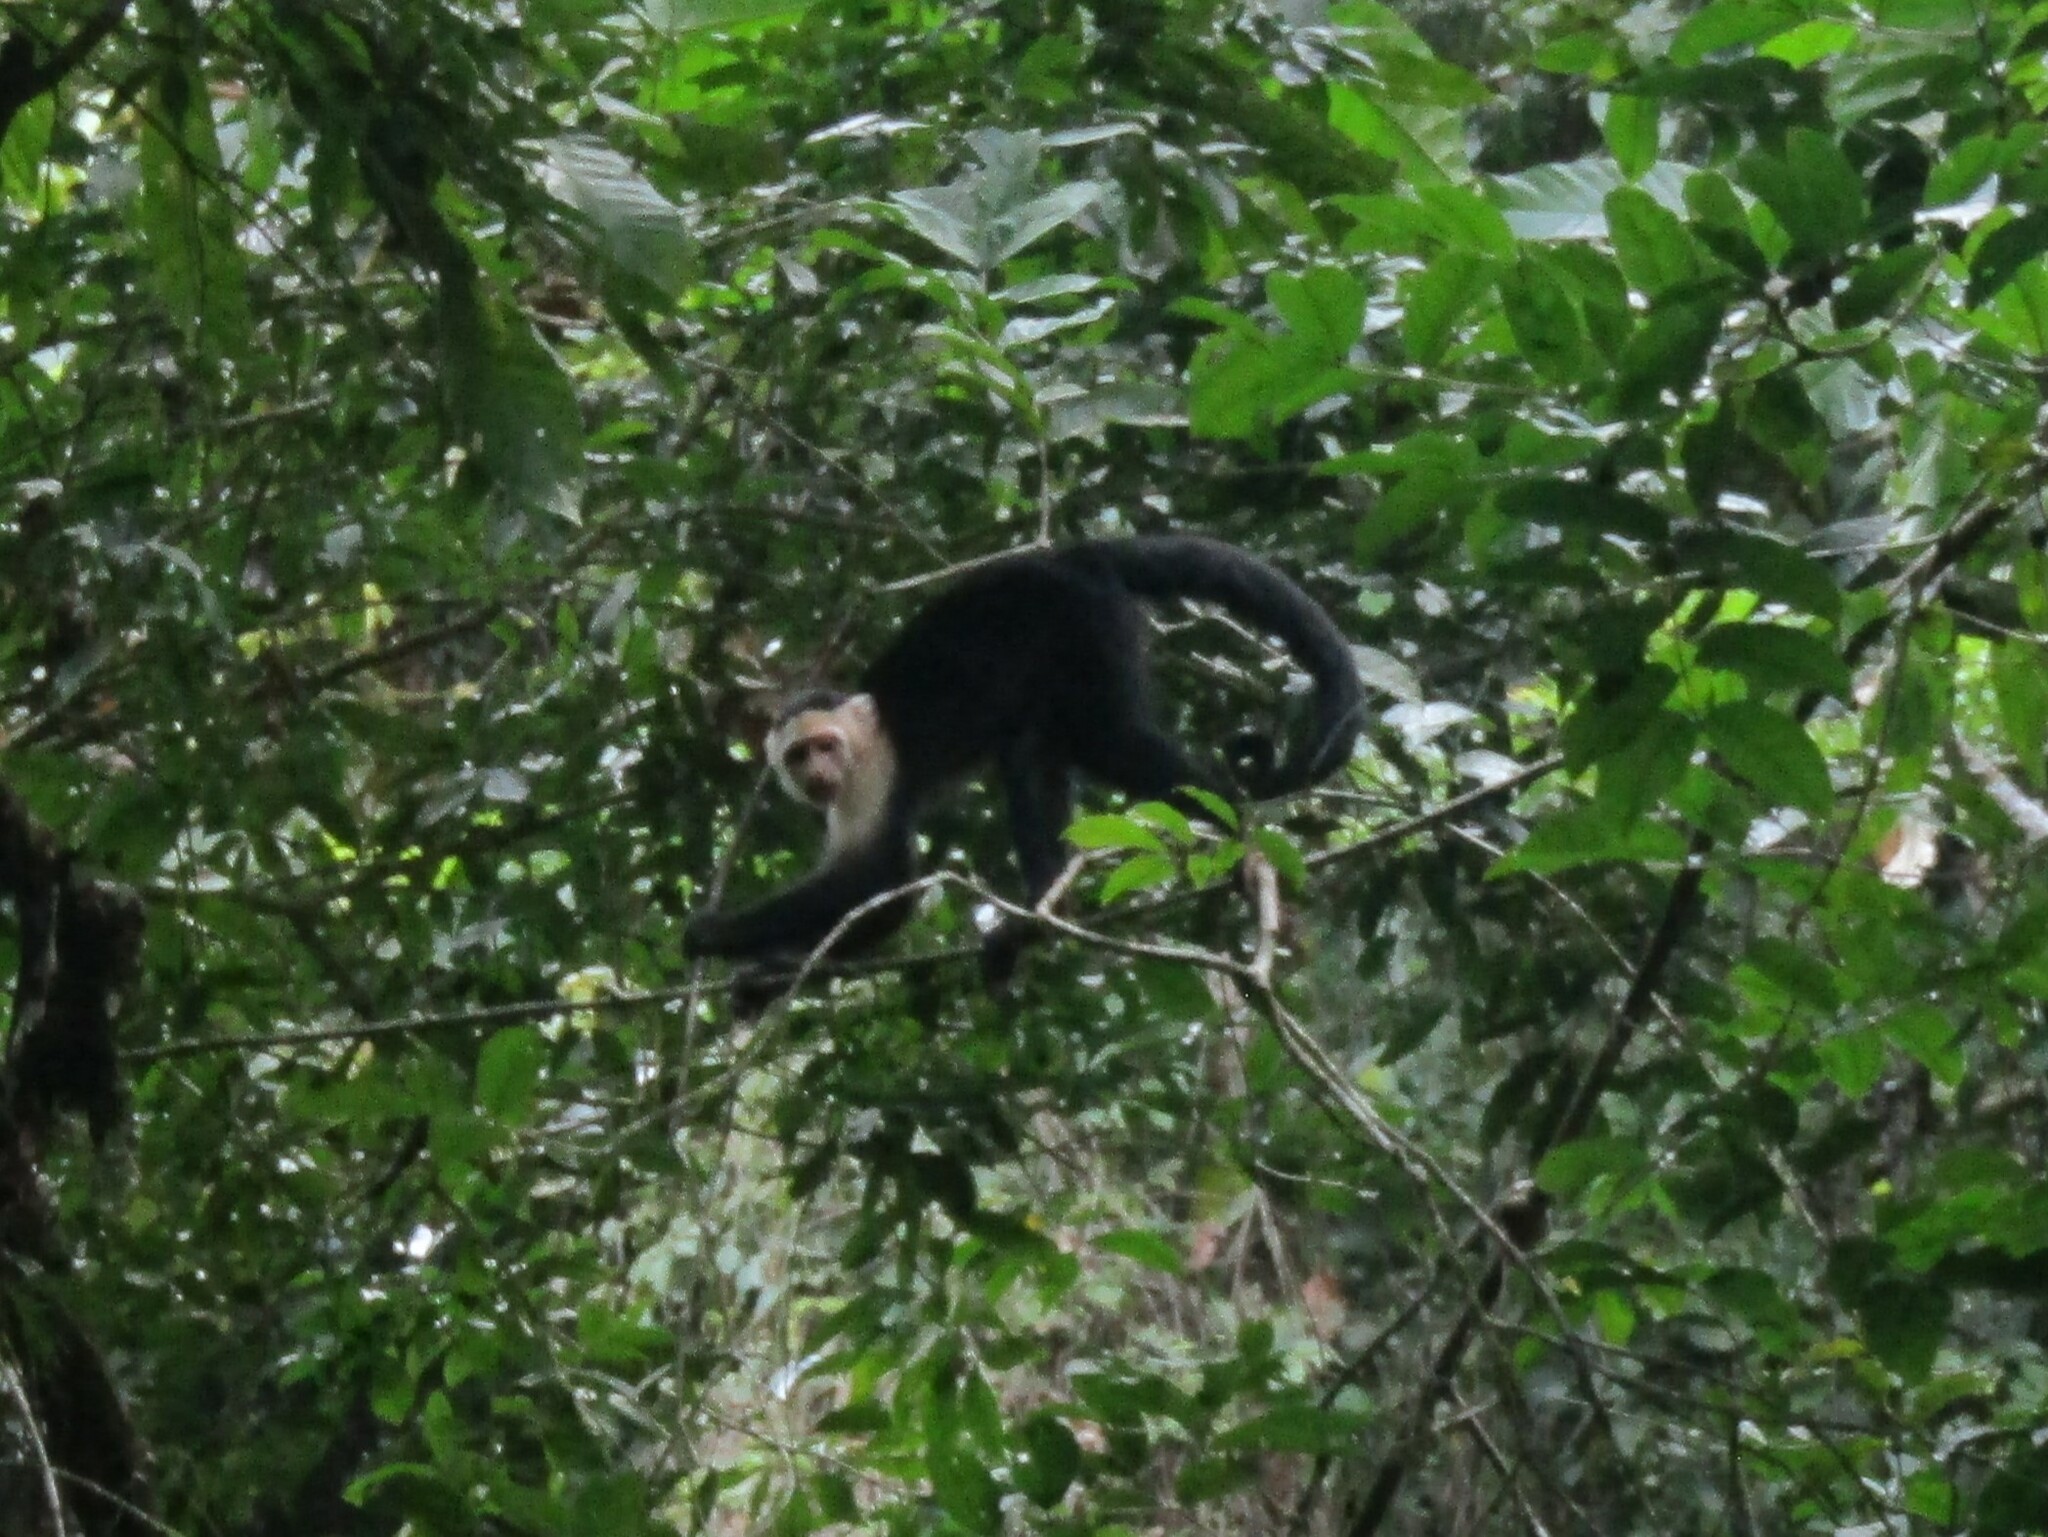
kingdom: Animalia
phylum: Chordata
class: Mammalia
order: Primates
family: Cebidae
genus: Cebus
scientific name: Cebus imitator
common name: Panamanian white-faced capuchin
